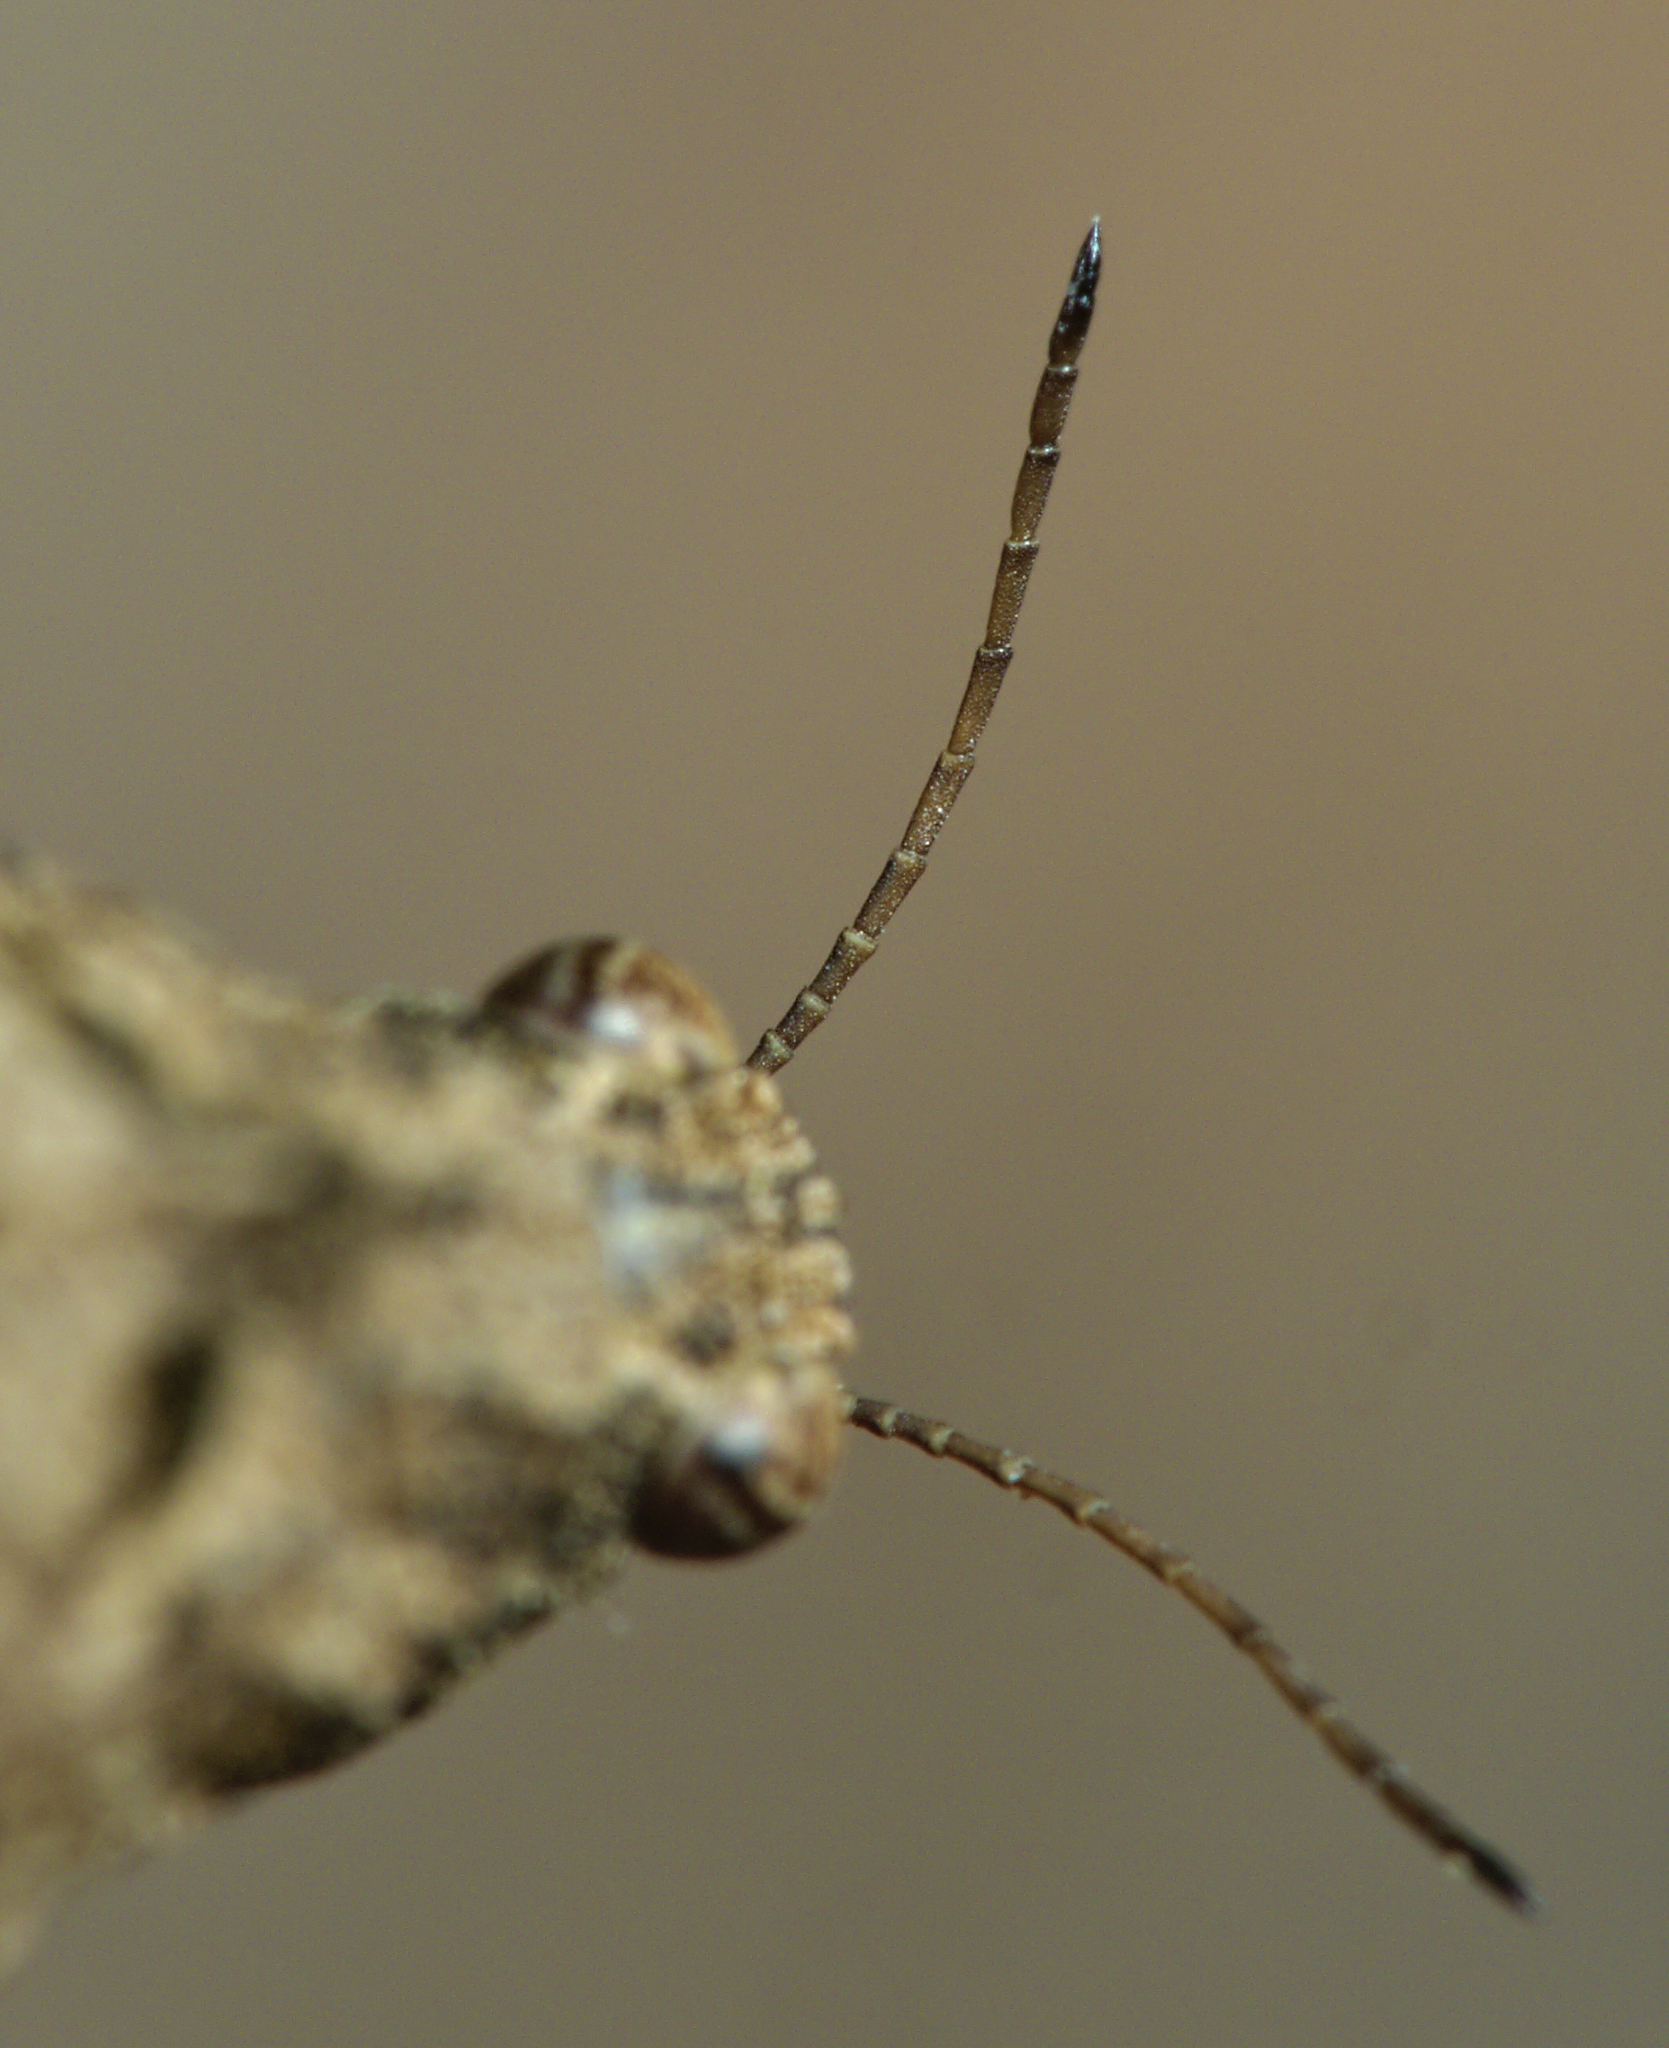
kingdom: Animalia
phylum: Arthropoda
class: Insecta
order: Orthoptera
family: Tetrigidae
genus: Tetrix
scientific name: Tetrix tenuicornis
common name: Long-horned groundhopper
